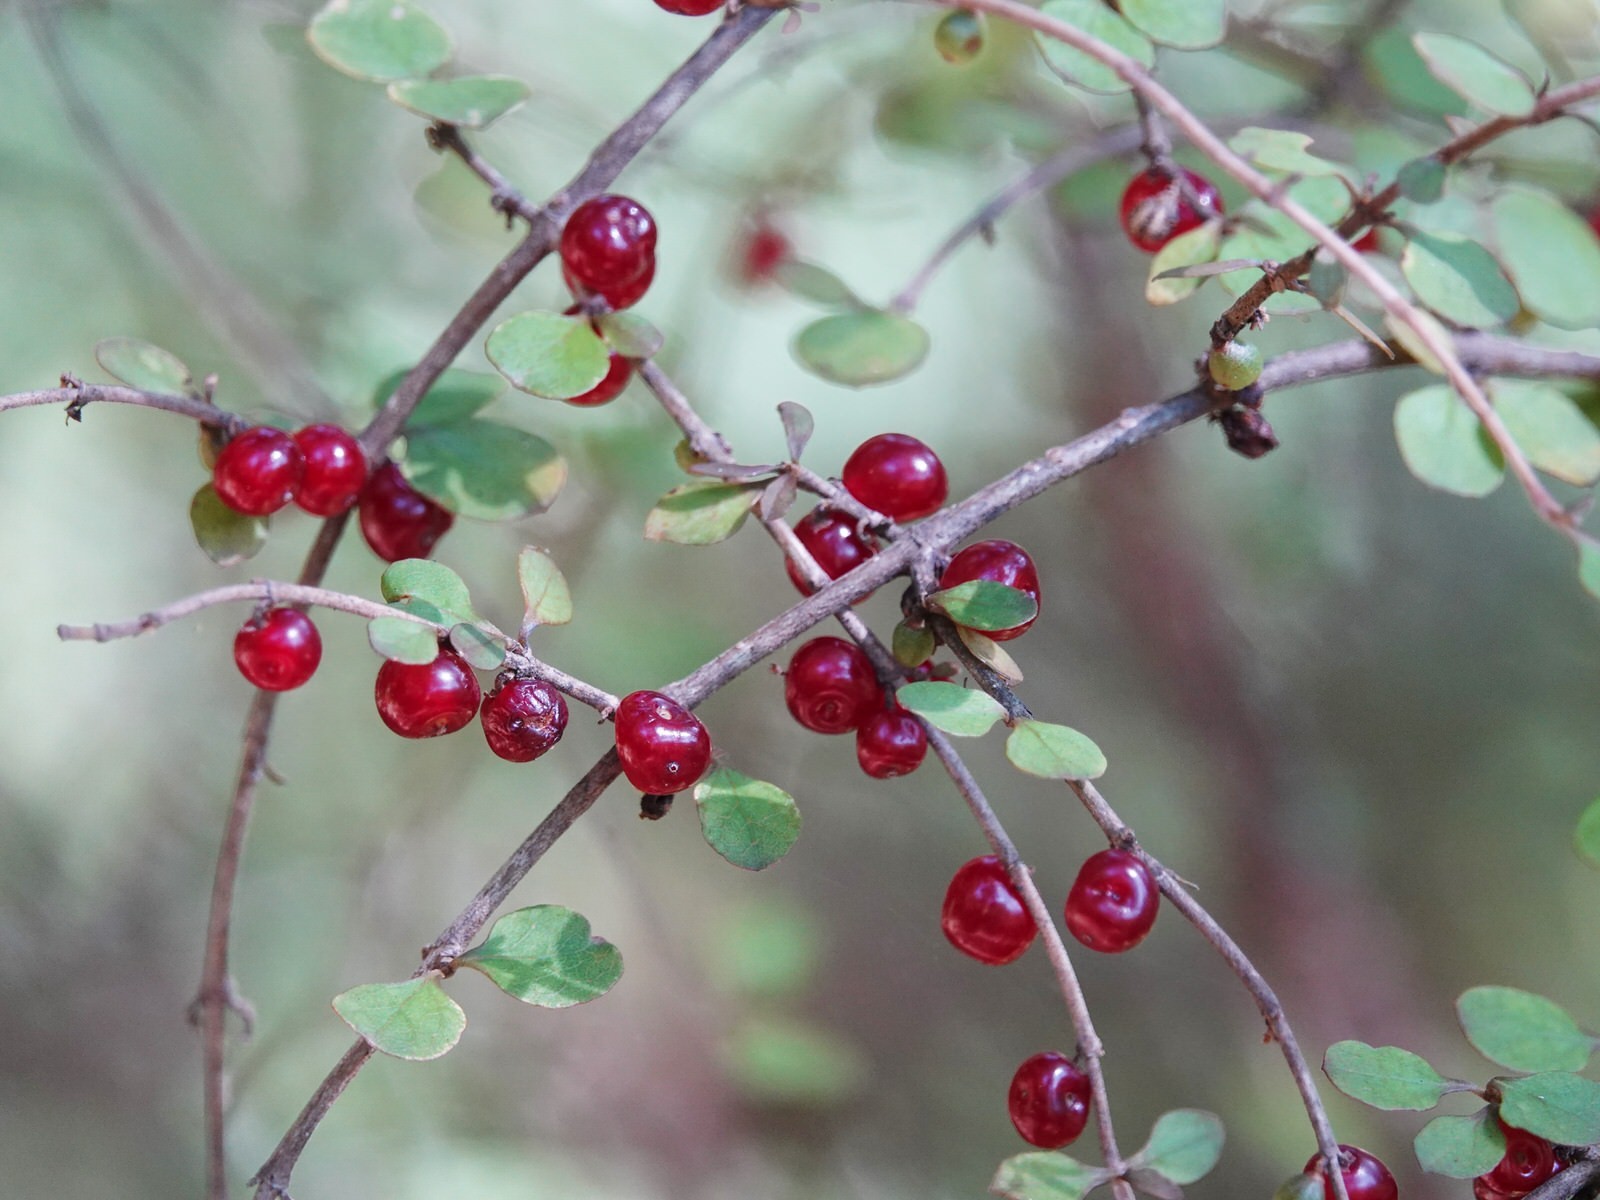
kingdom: Plantae
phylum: Tracheophyta
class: Magnoliopsida
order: Gentianales
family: Rubiaceae
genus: Coprosma
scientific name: Coprosma rhamnoides
